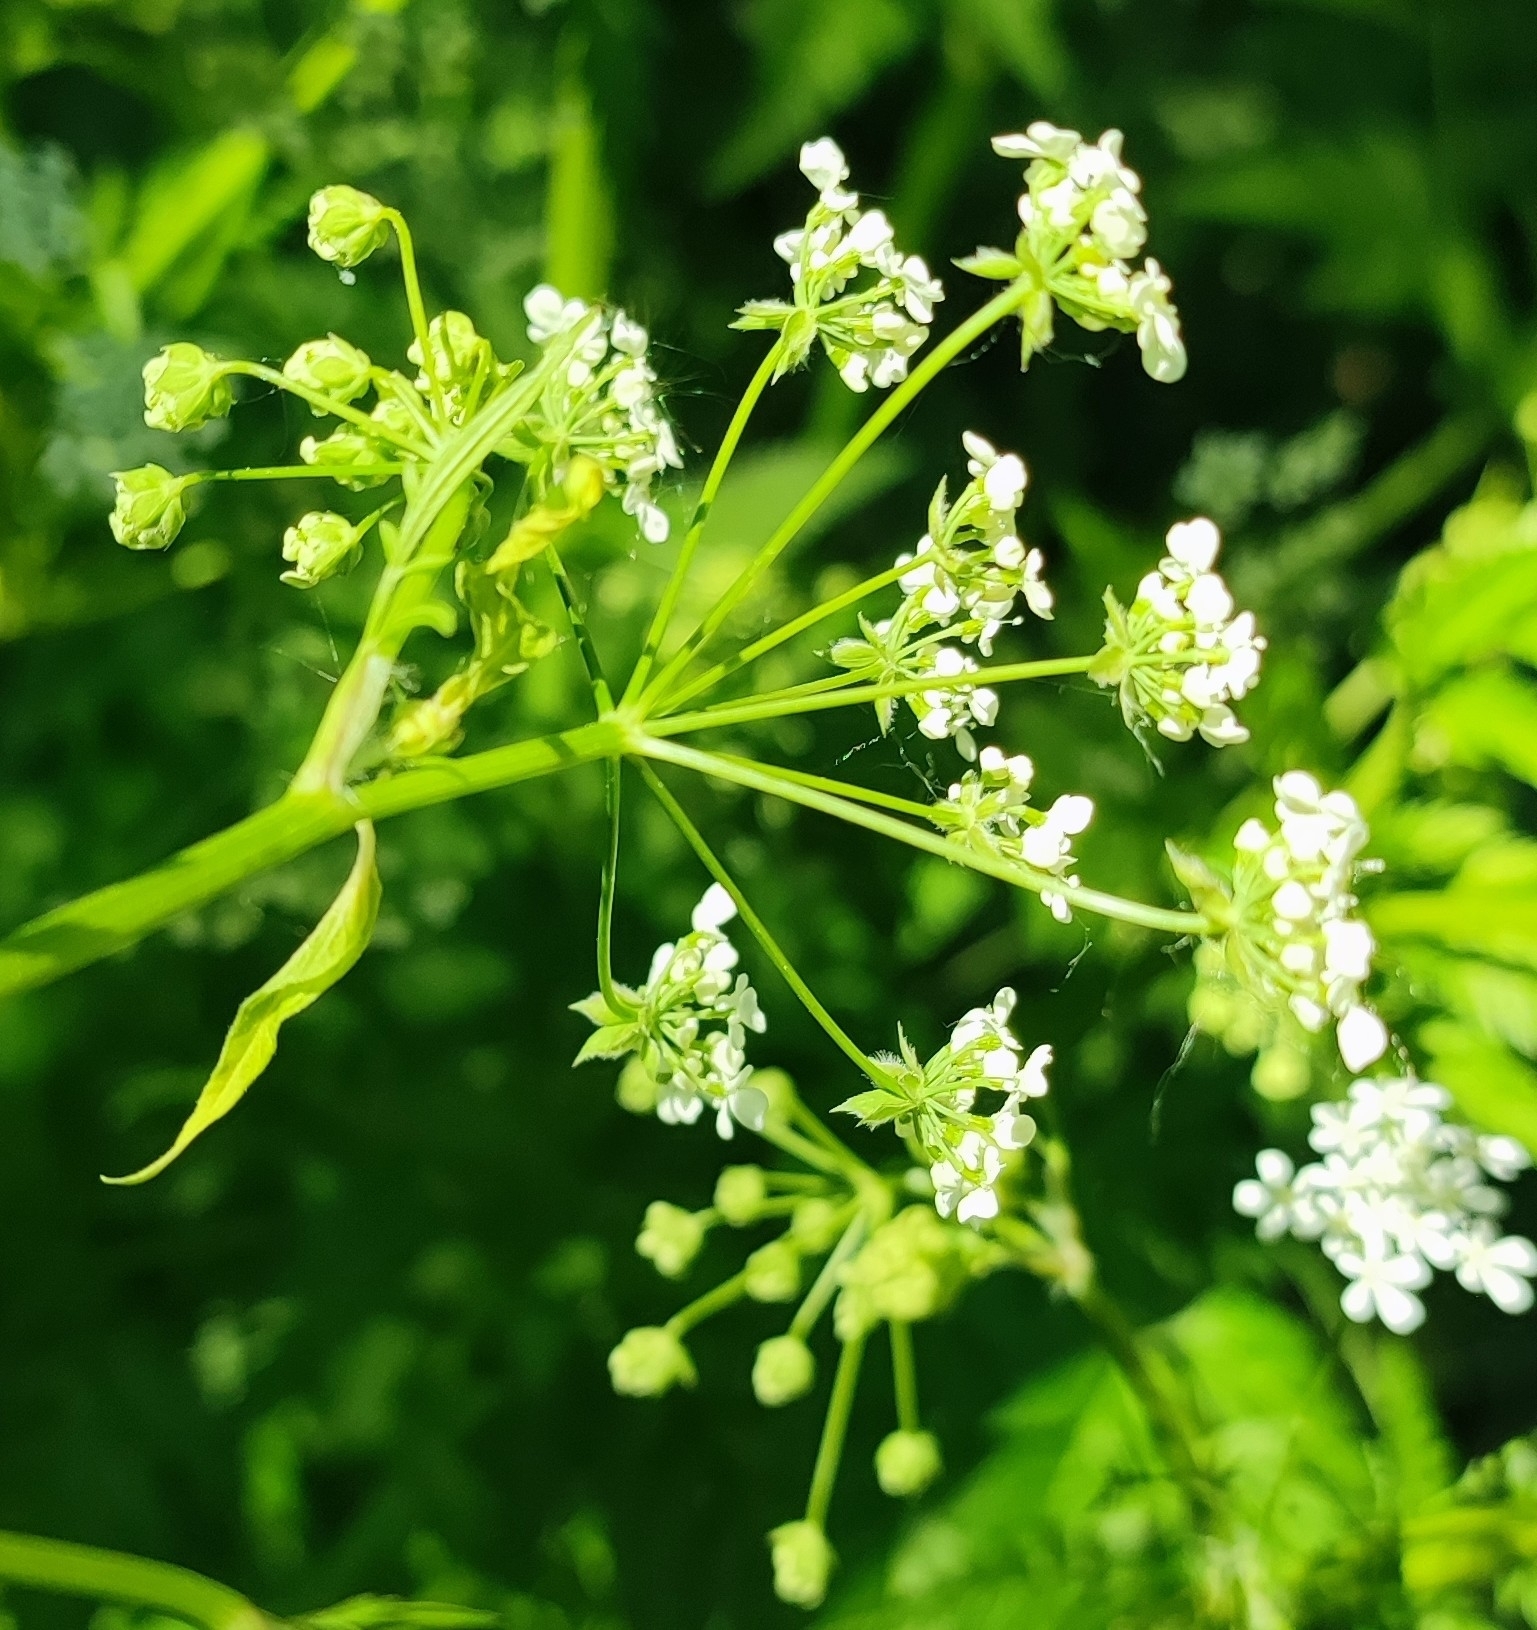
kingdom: Plantae
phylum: Tracheophyta
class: Magnoliopsida
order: Apiales
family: Apiaceae
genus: Anthriscus
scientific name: Anthriscus sylvestris
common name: Cow parsley
